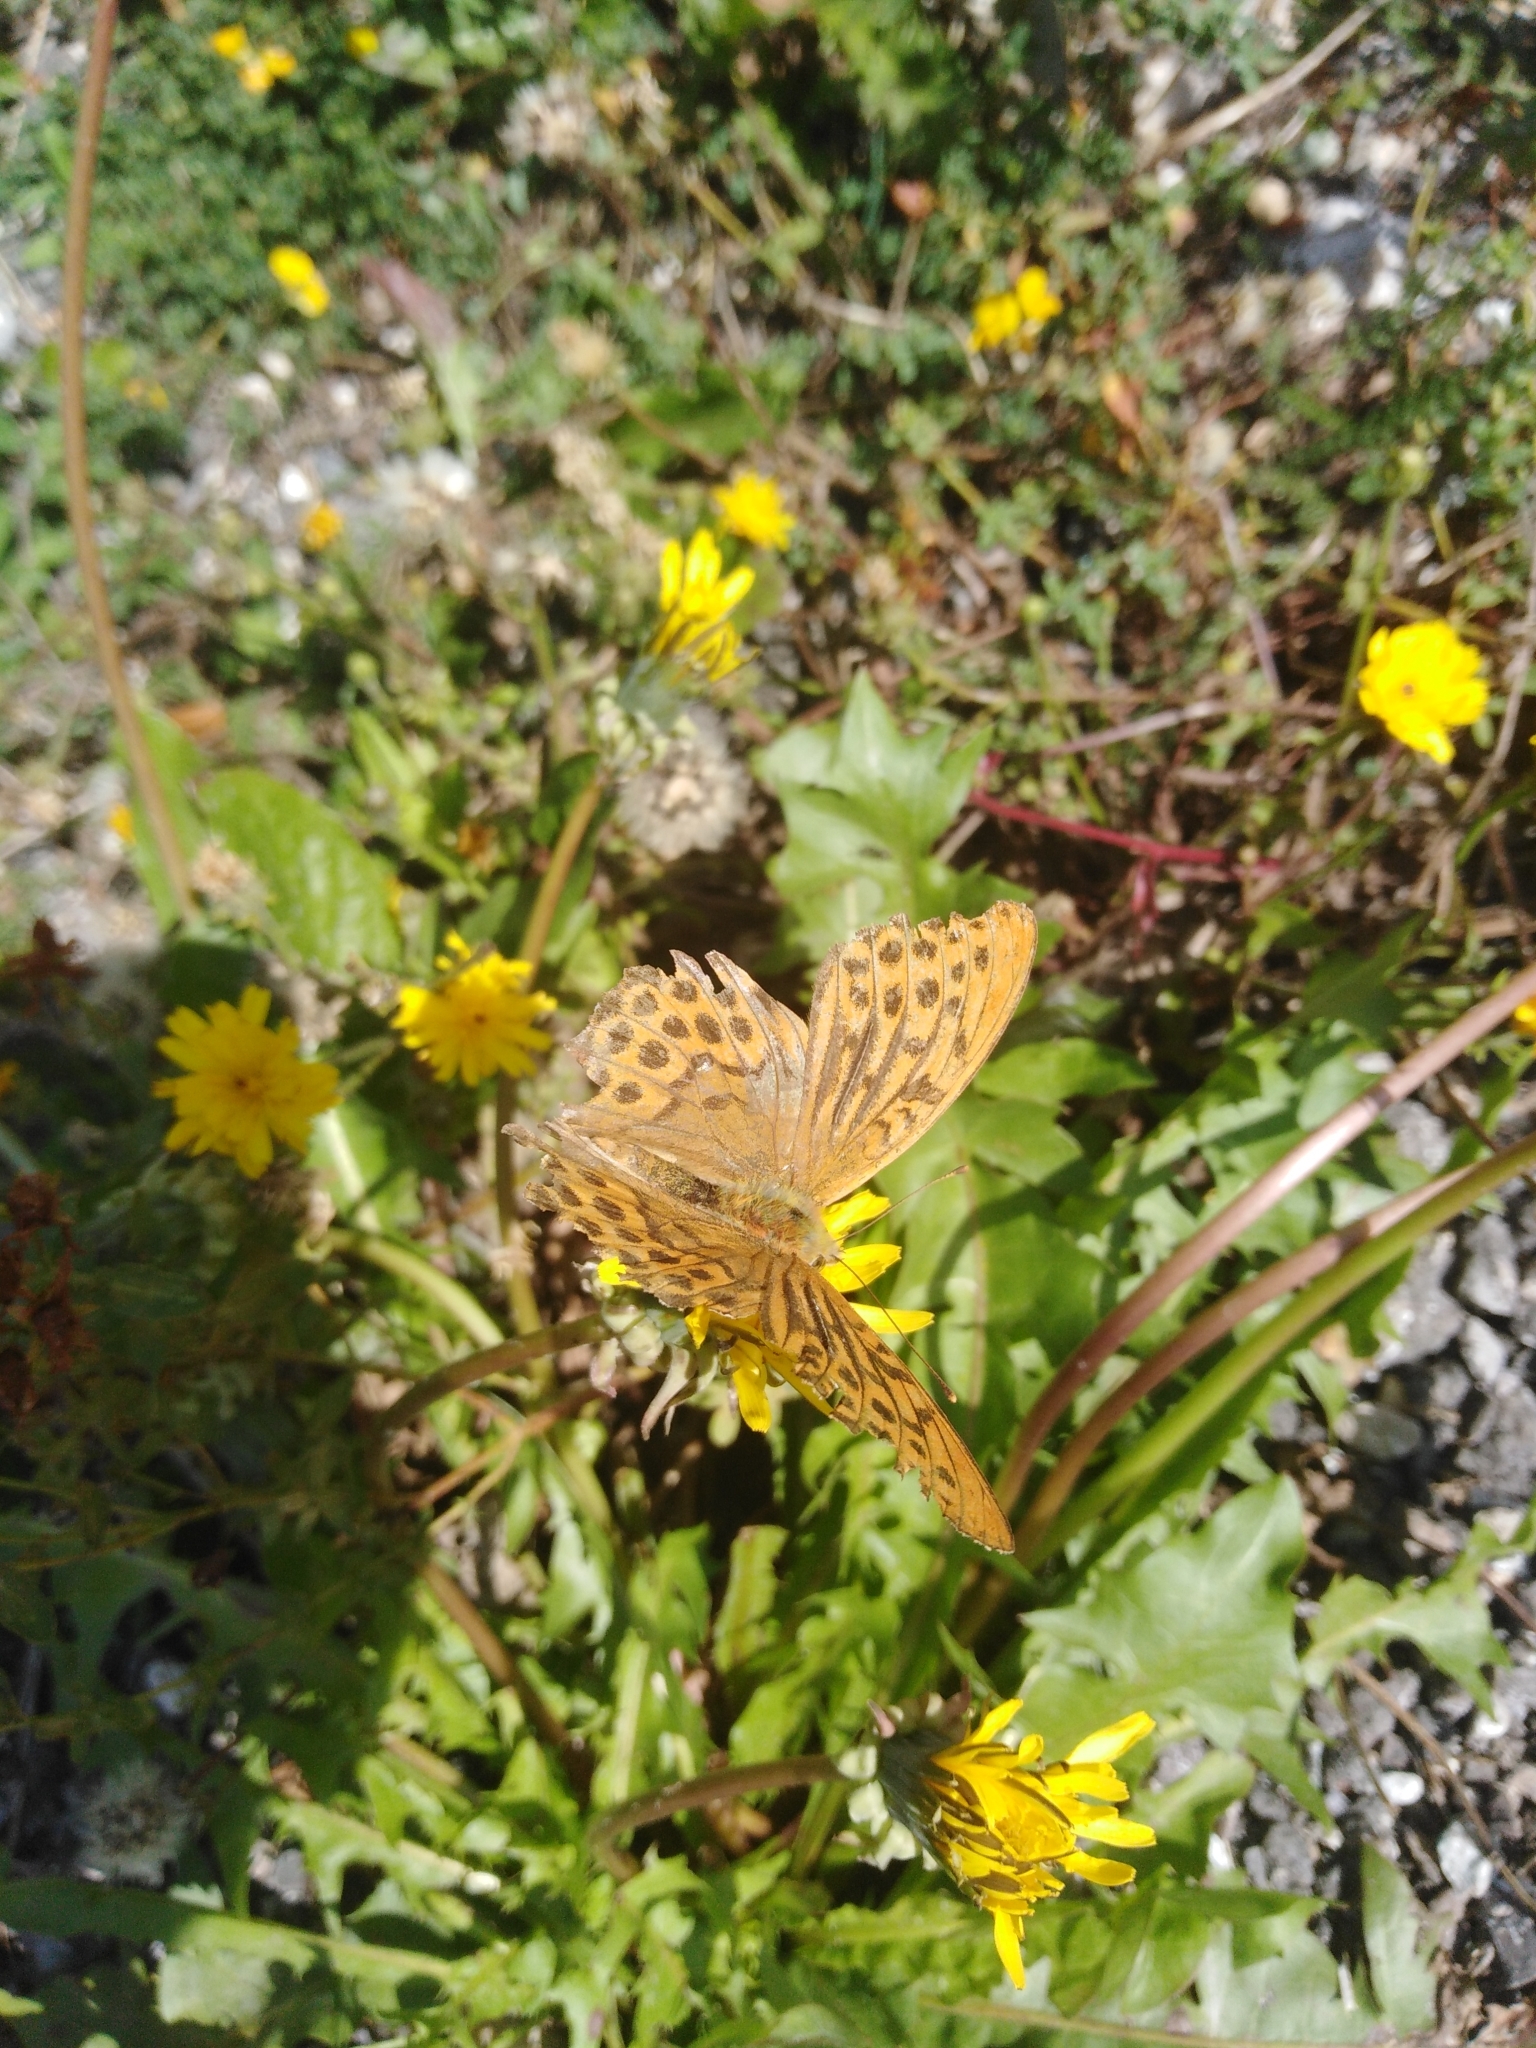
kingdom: Animalia
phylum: Arthropoda
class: Insecta
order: Lepidoptera
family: Nymphalidae
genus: Argynnis
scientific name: Argynnis paphia
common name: Silver-washed fritillary
